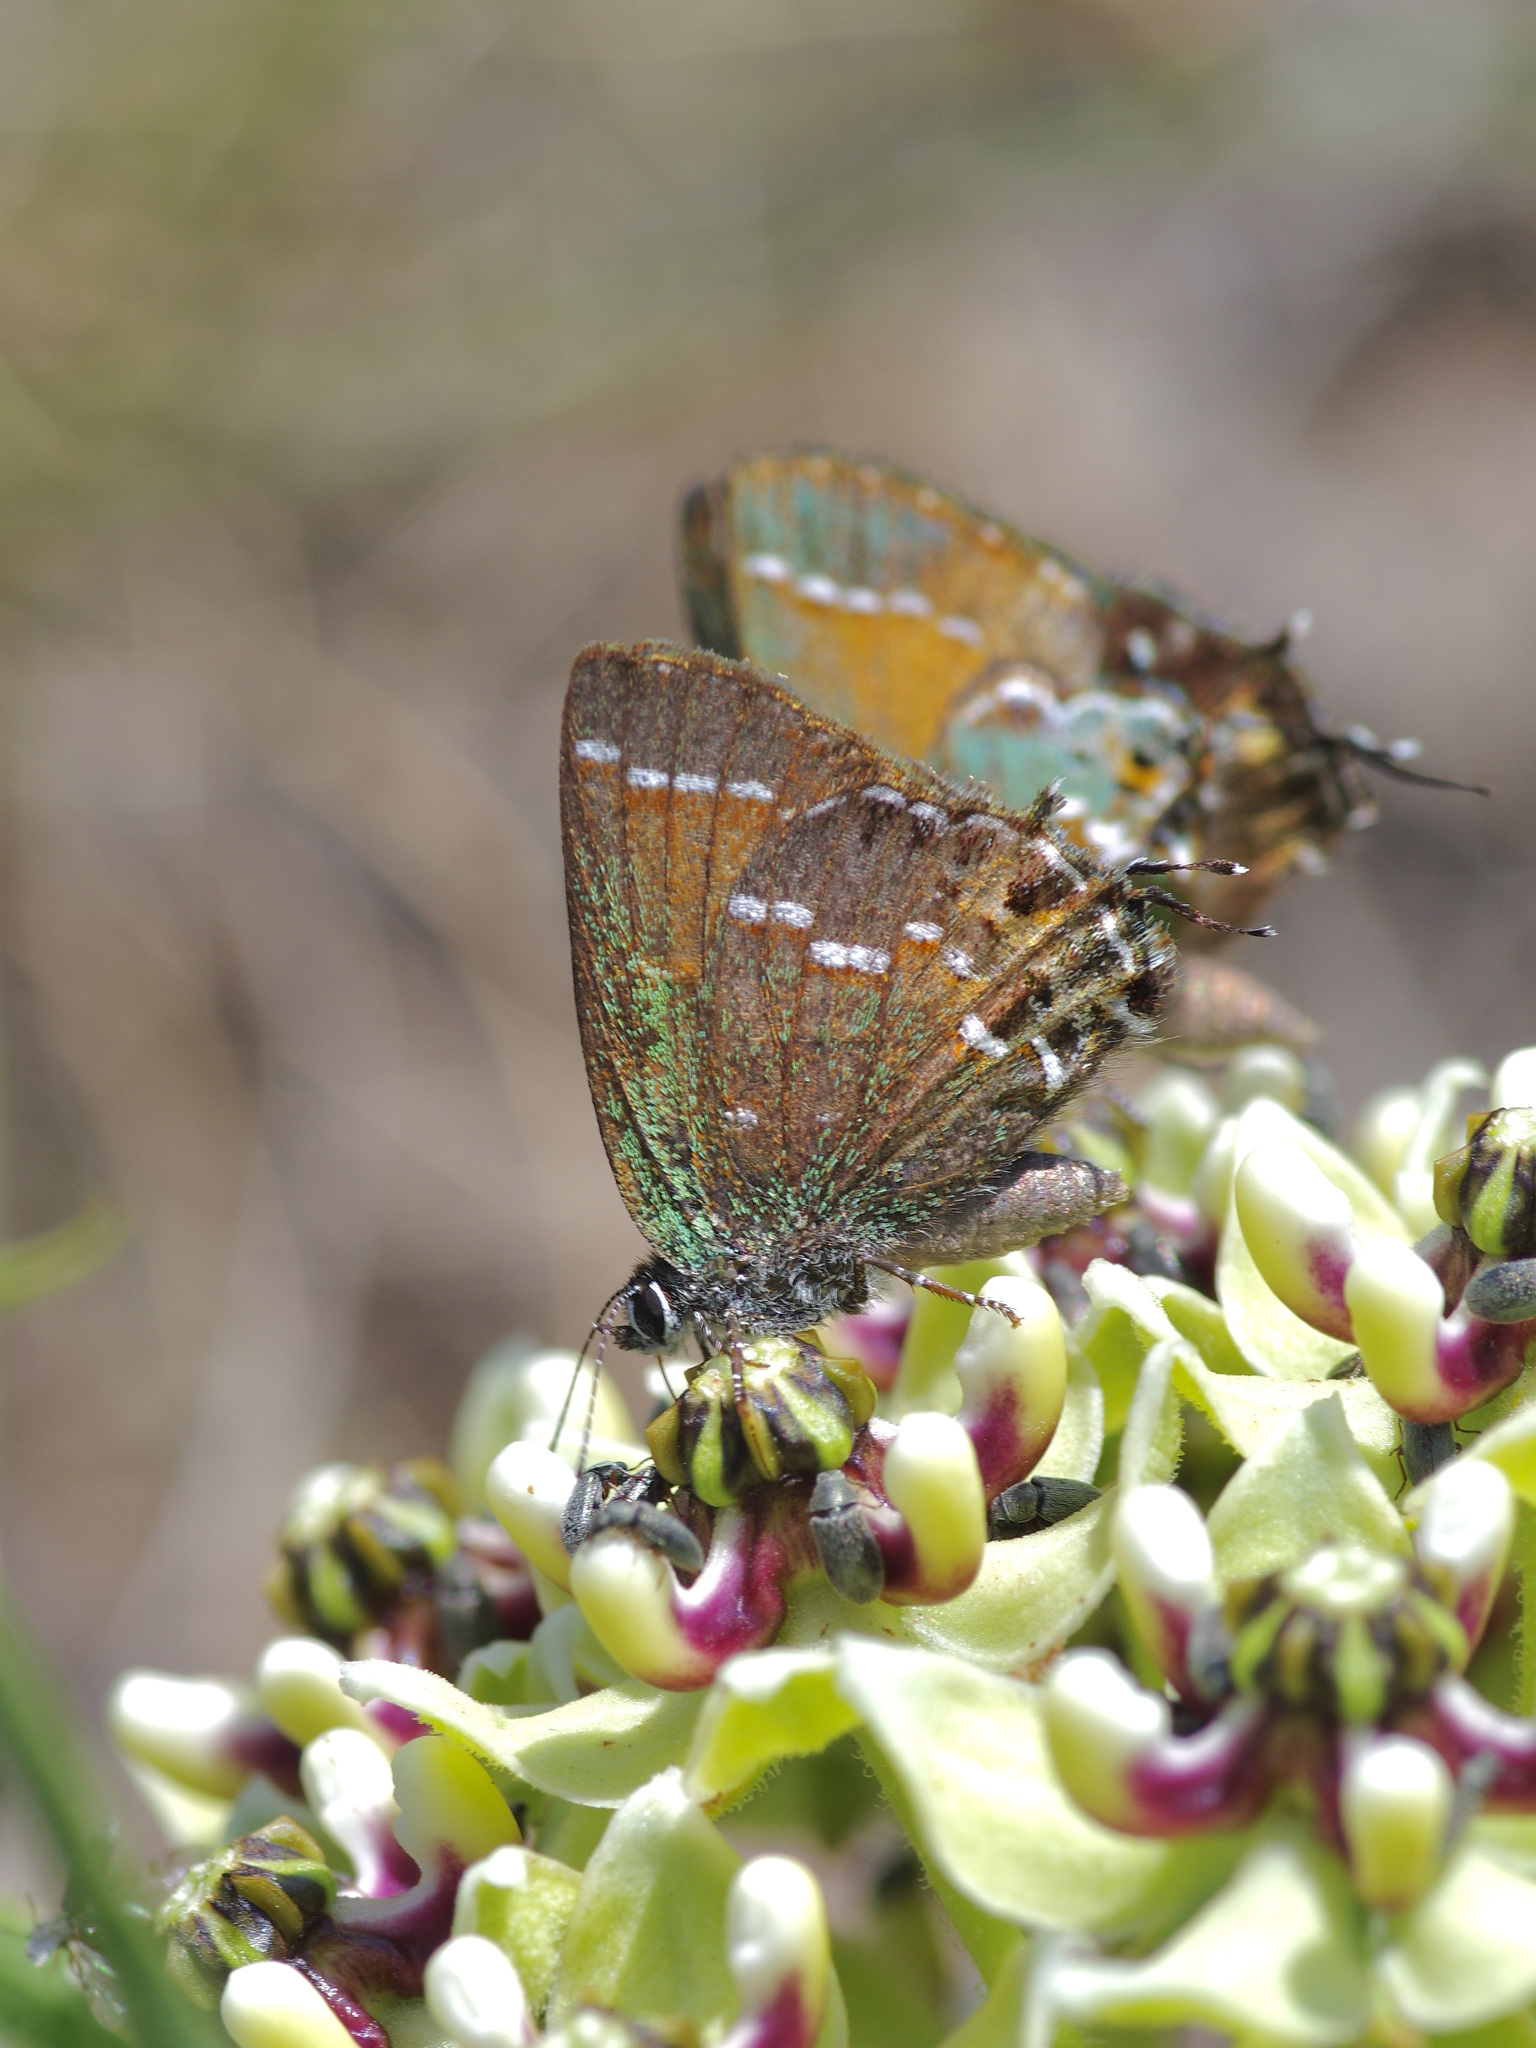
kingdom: Animalia
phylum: Arthropoda
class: Insecta
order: Lepidoptera
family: Lycaenidae
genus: Mitoura
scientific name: Mitoura gryneus
